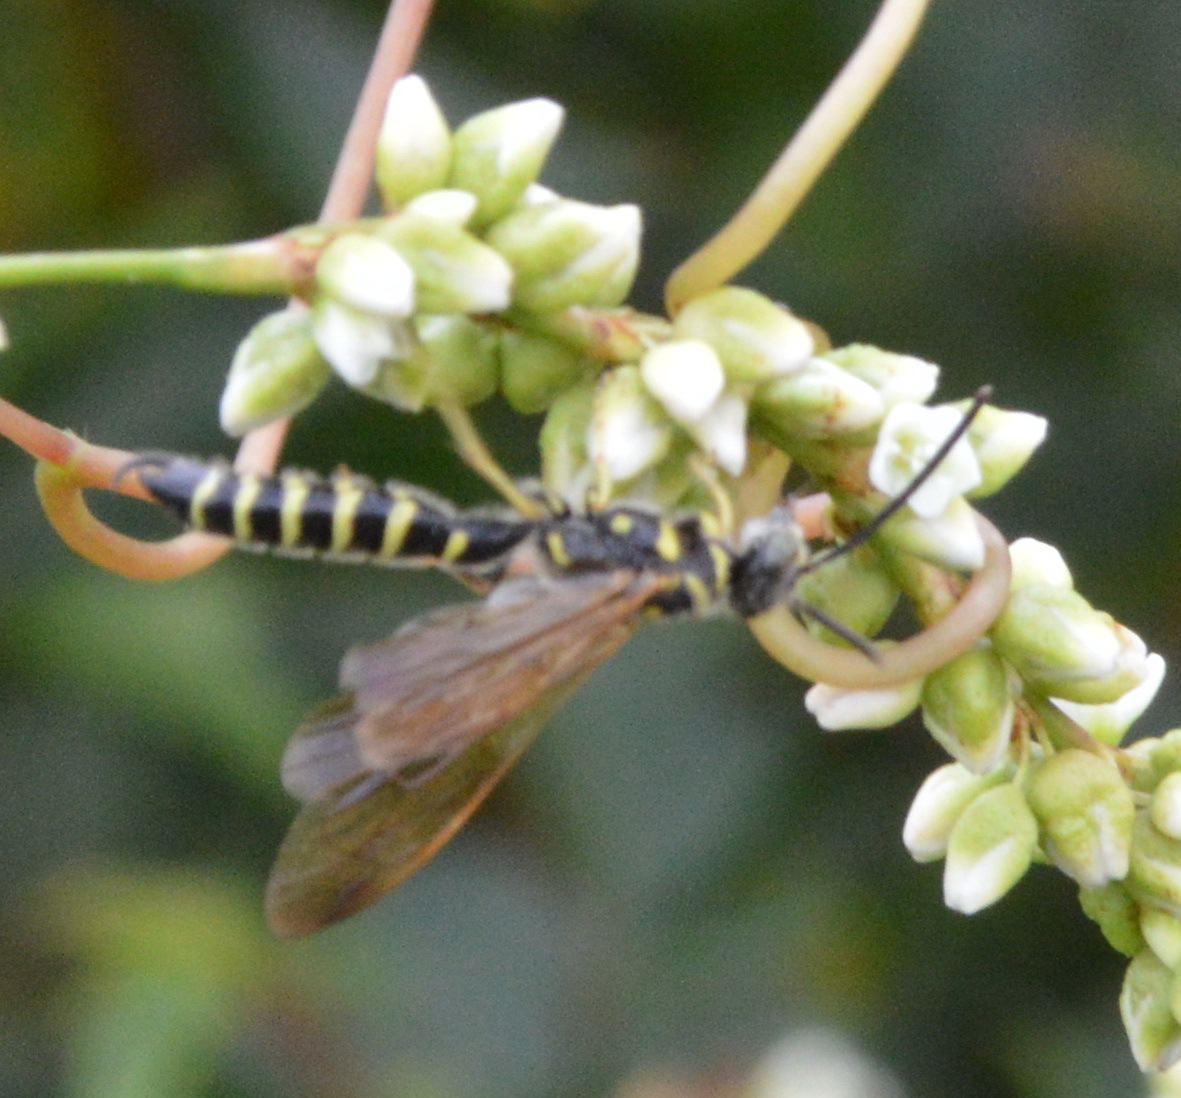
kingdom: Animalia
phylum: Arthropoda
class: Insecta
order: Hymenoptera
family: Tiphiidae
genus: Myzinum
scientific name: Myzinum
